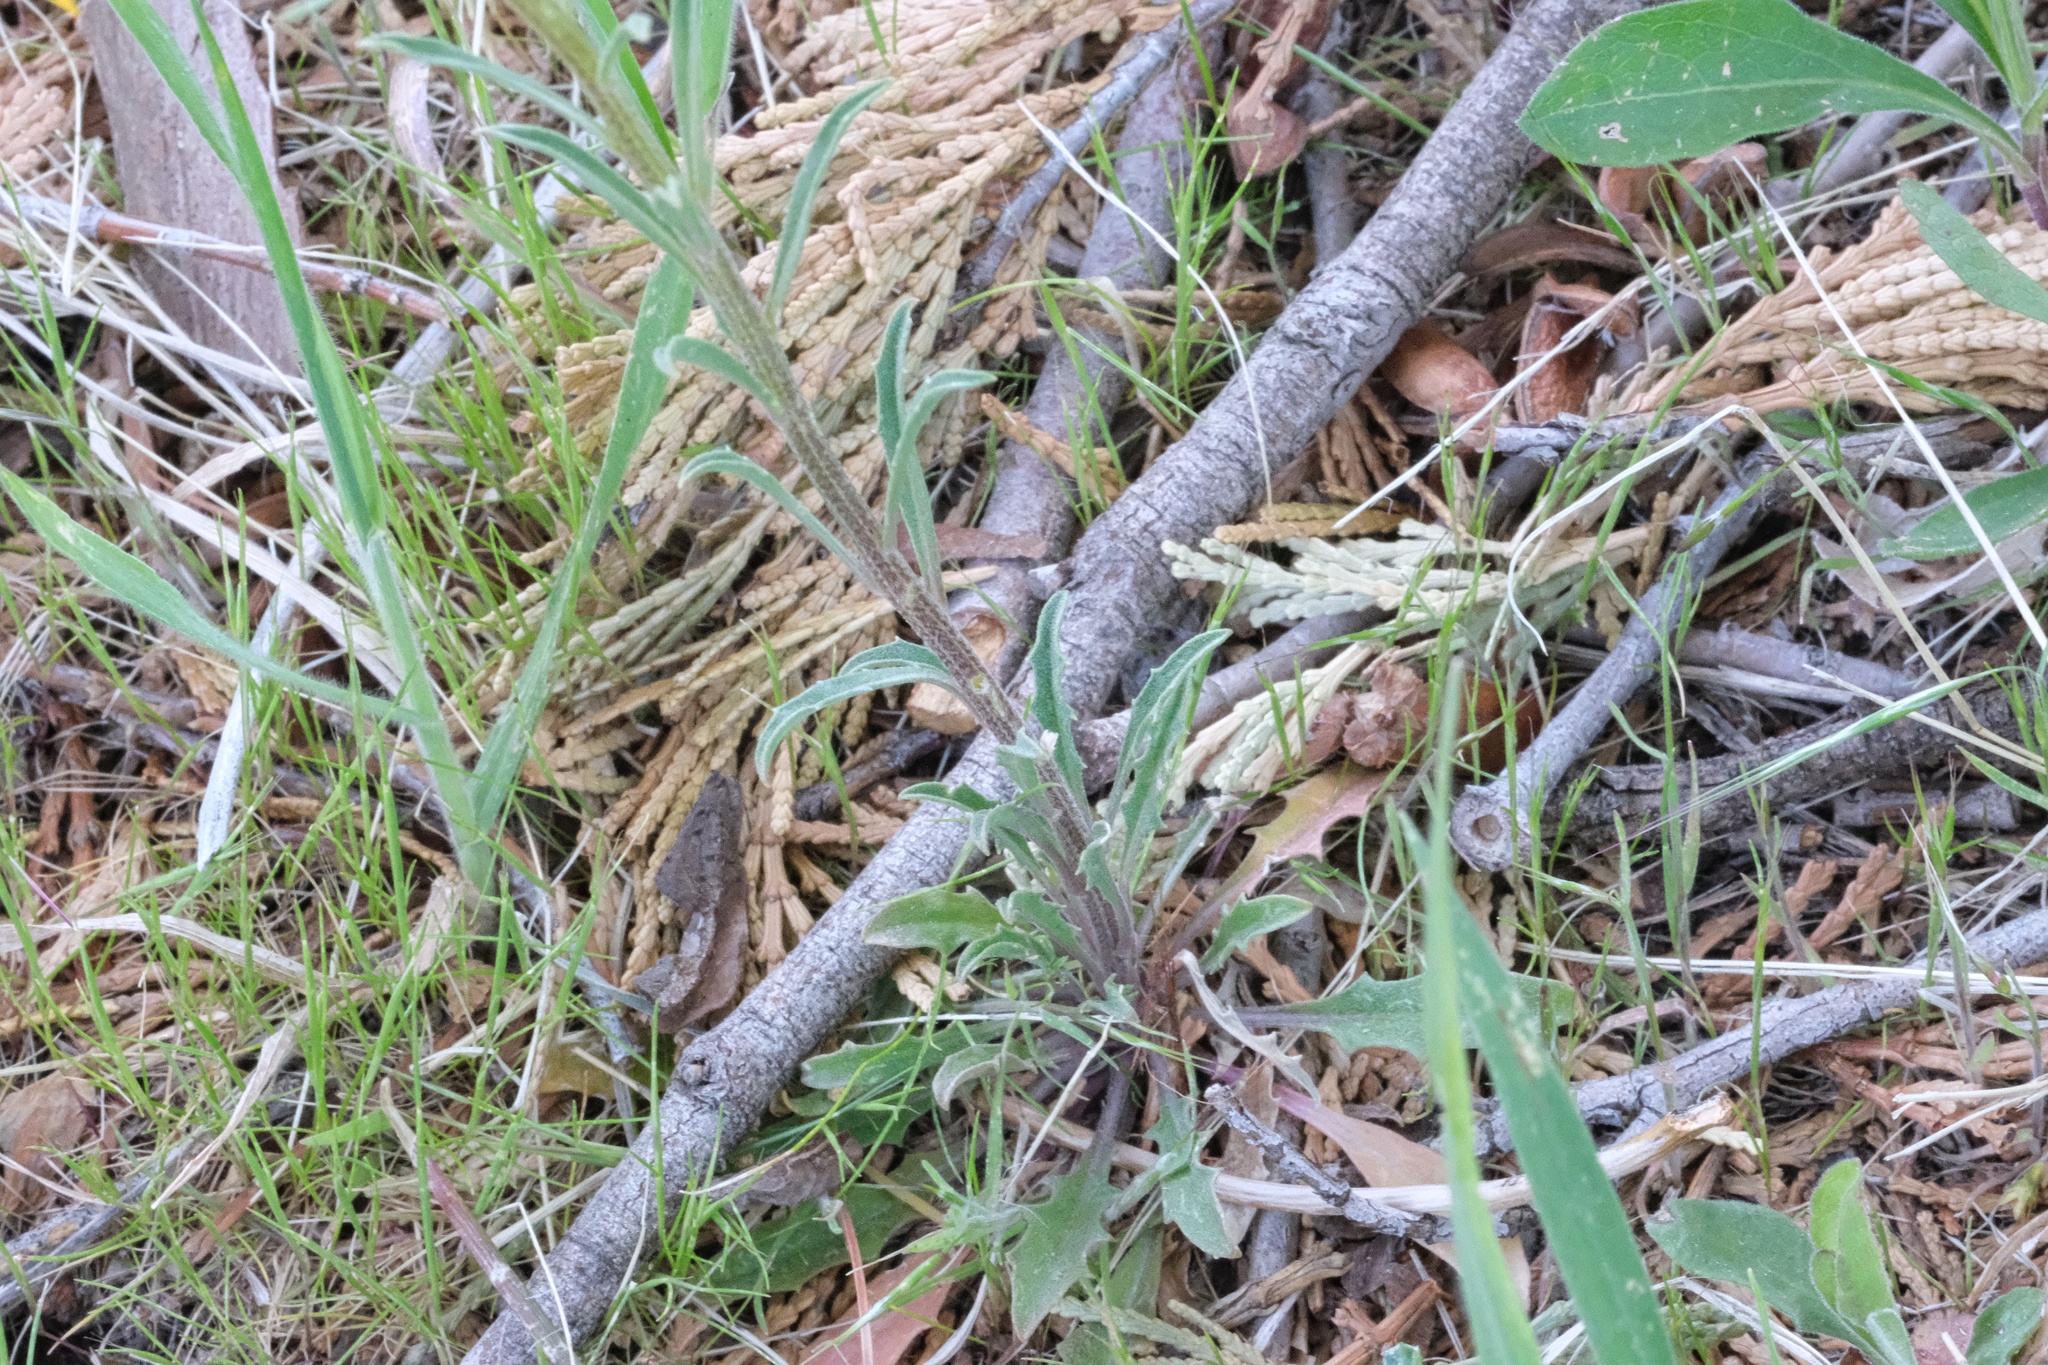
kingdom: Plantae
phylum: Tracheophyta
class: Magnoliopsida
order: Brassicales
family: Brassicaceae
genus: Erysimum
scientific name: Erysimum capitatum
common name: Western wallflower
